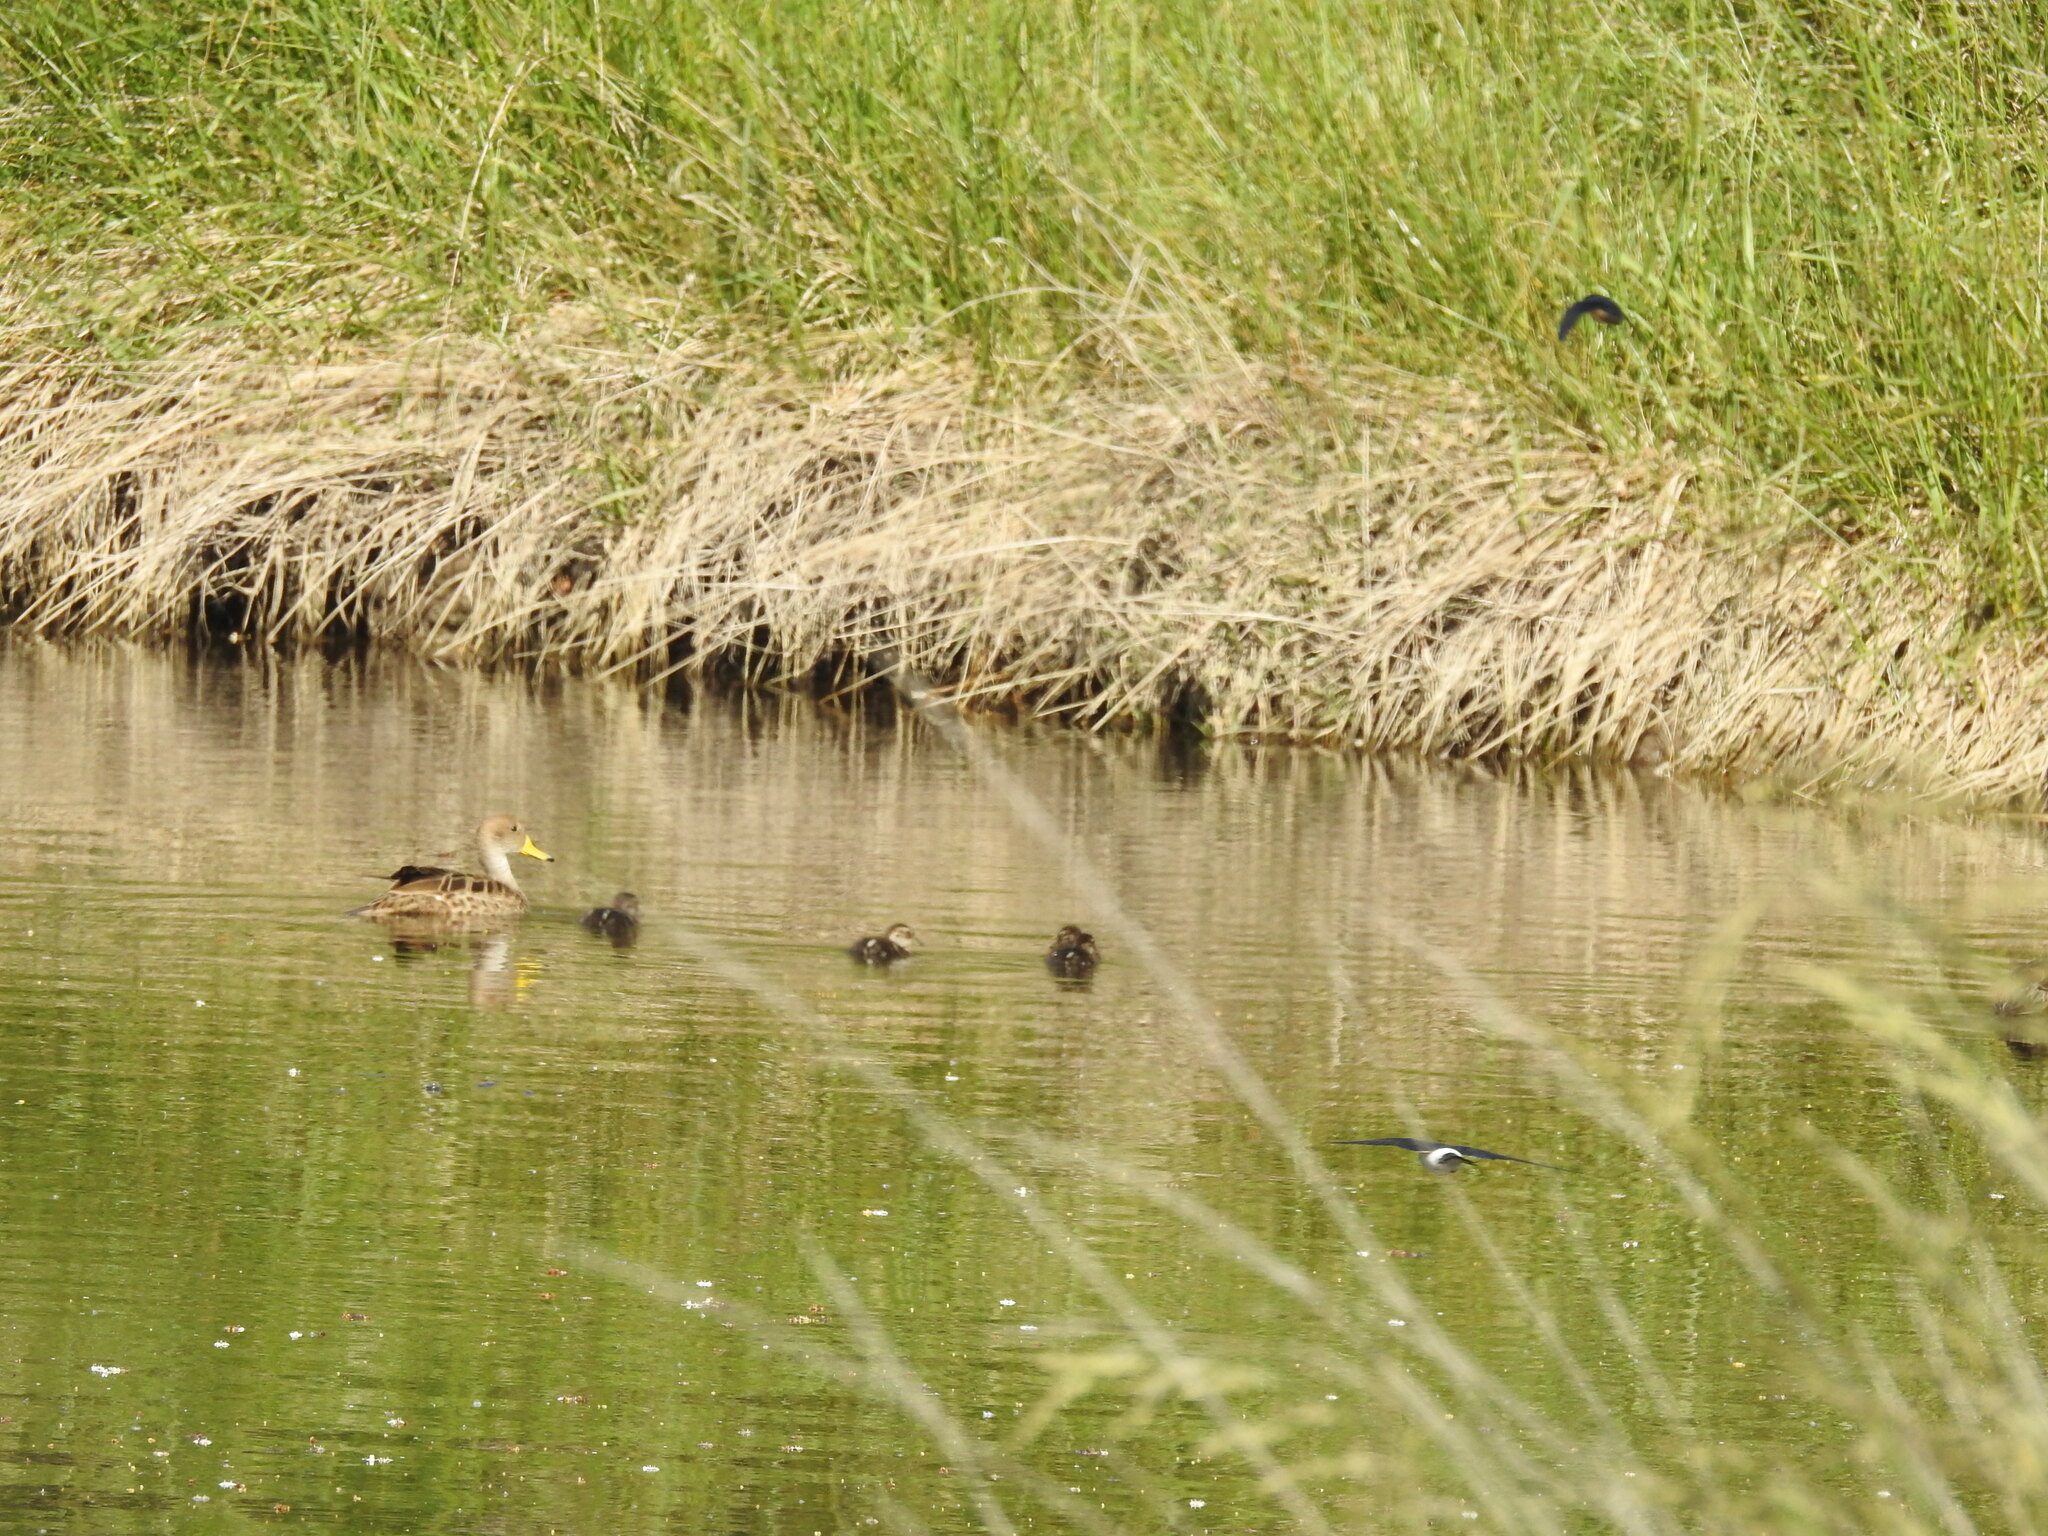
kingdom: Animalia
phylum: Chordata
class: Aves
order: Anseriformes
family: Anatidae
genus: Anas
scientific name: Anas georgica
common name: Yellow-billed pintail
